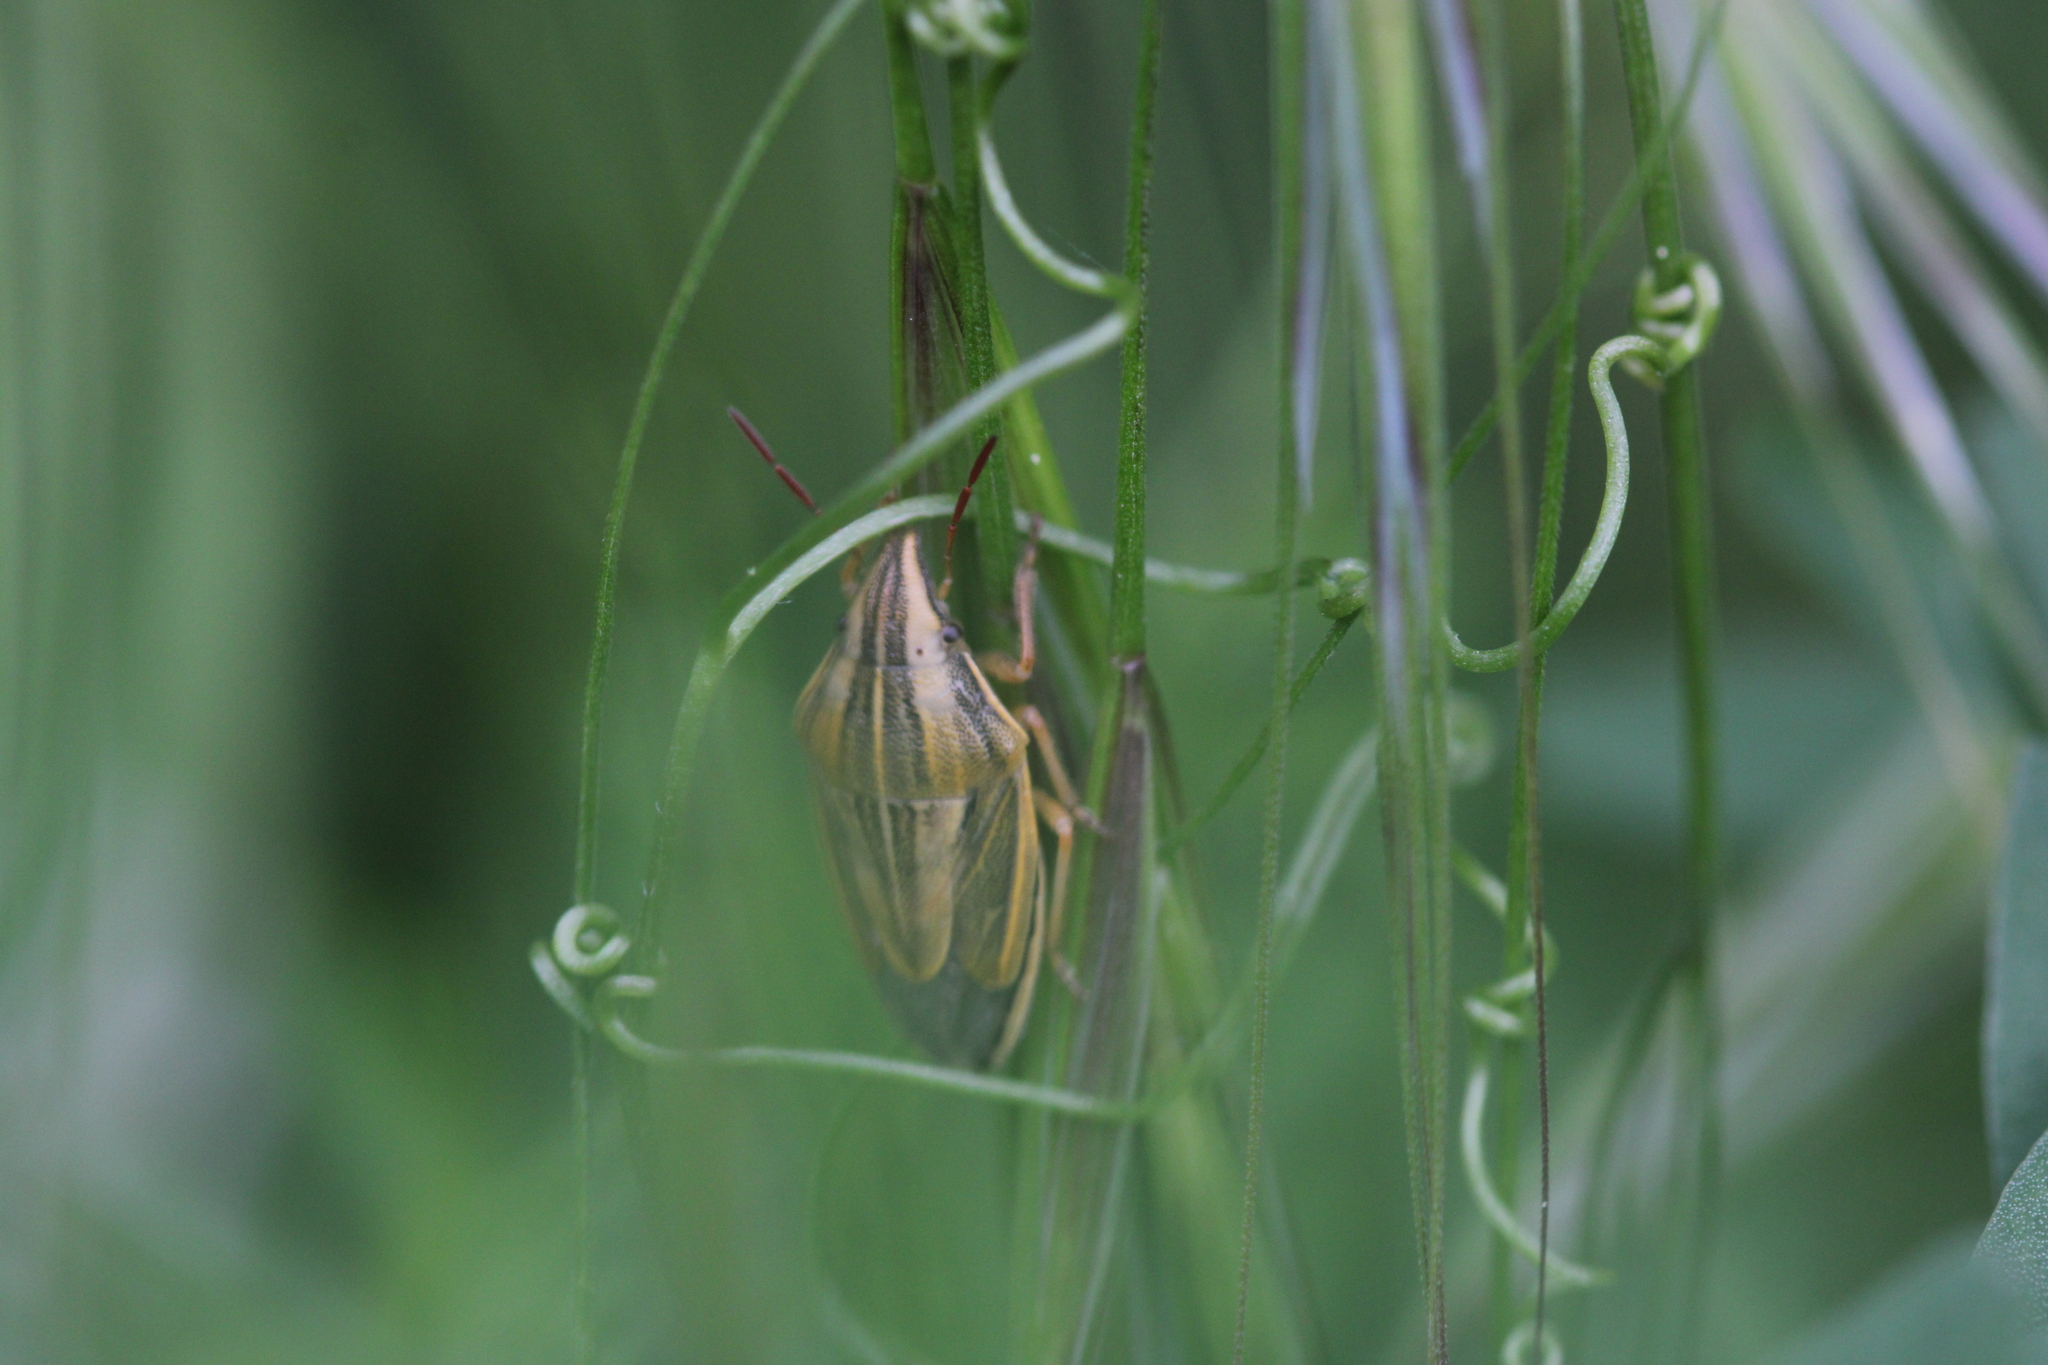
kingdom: Animalia
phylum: Arthropoda
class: Insecta
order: Hemiptera
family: Pentatomidae
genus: Aelia
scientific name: Aelia acuminata
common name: Bishop's mitre
